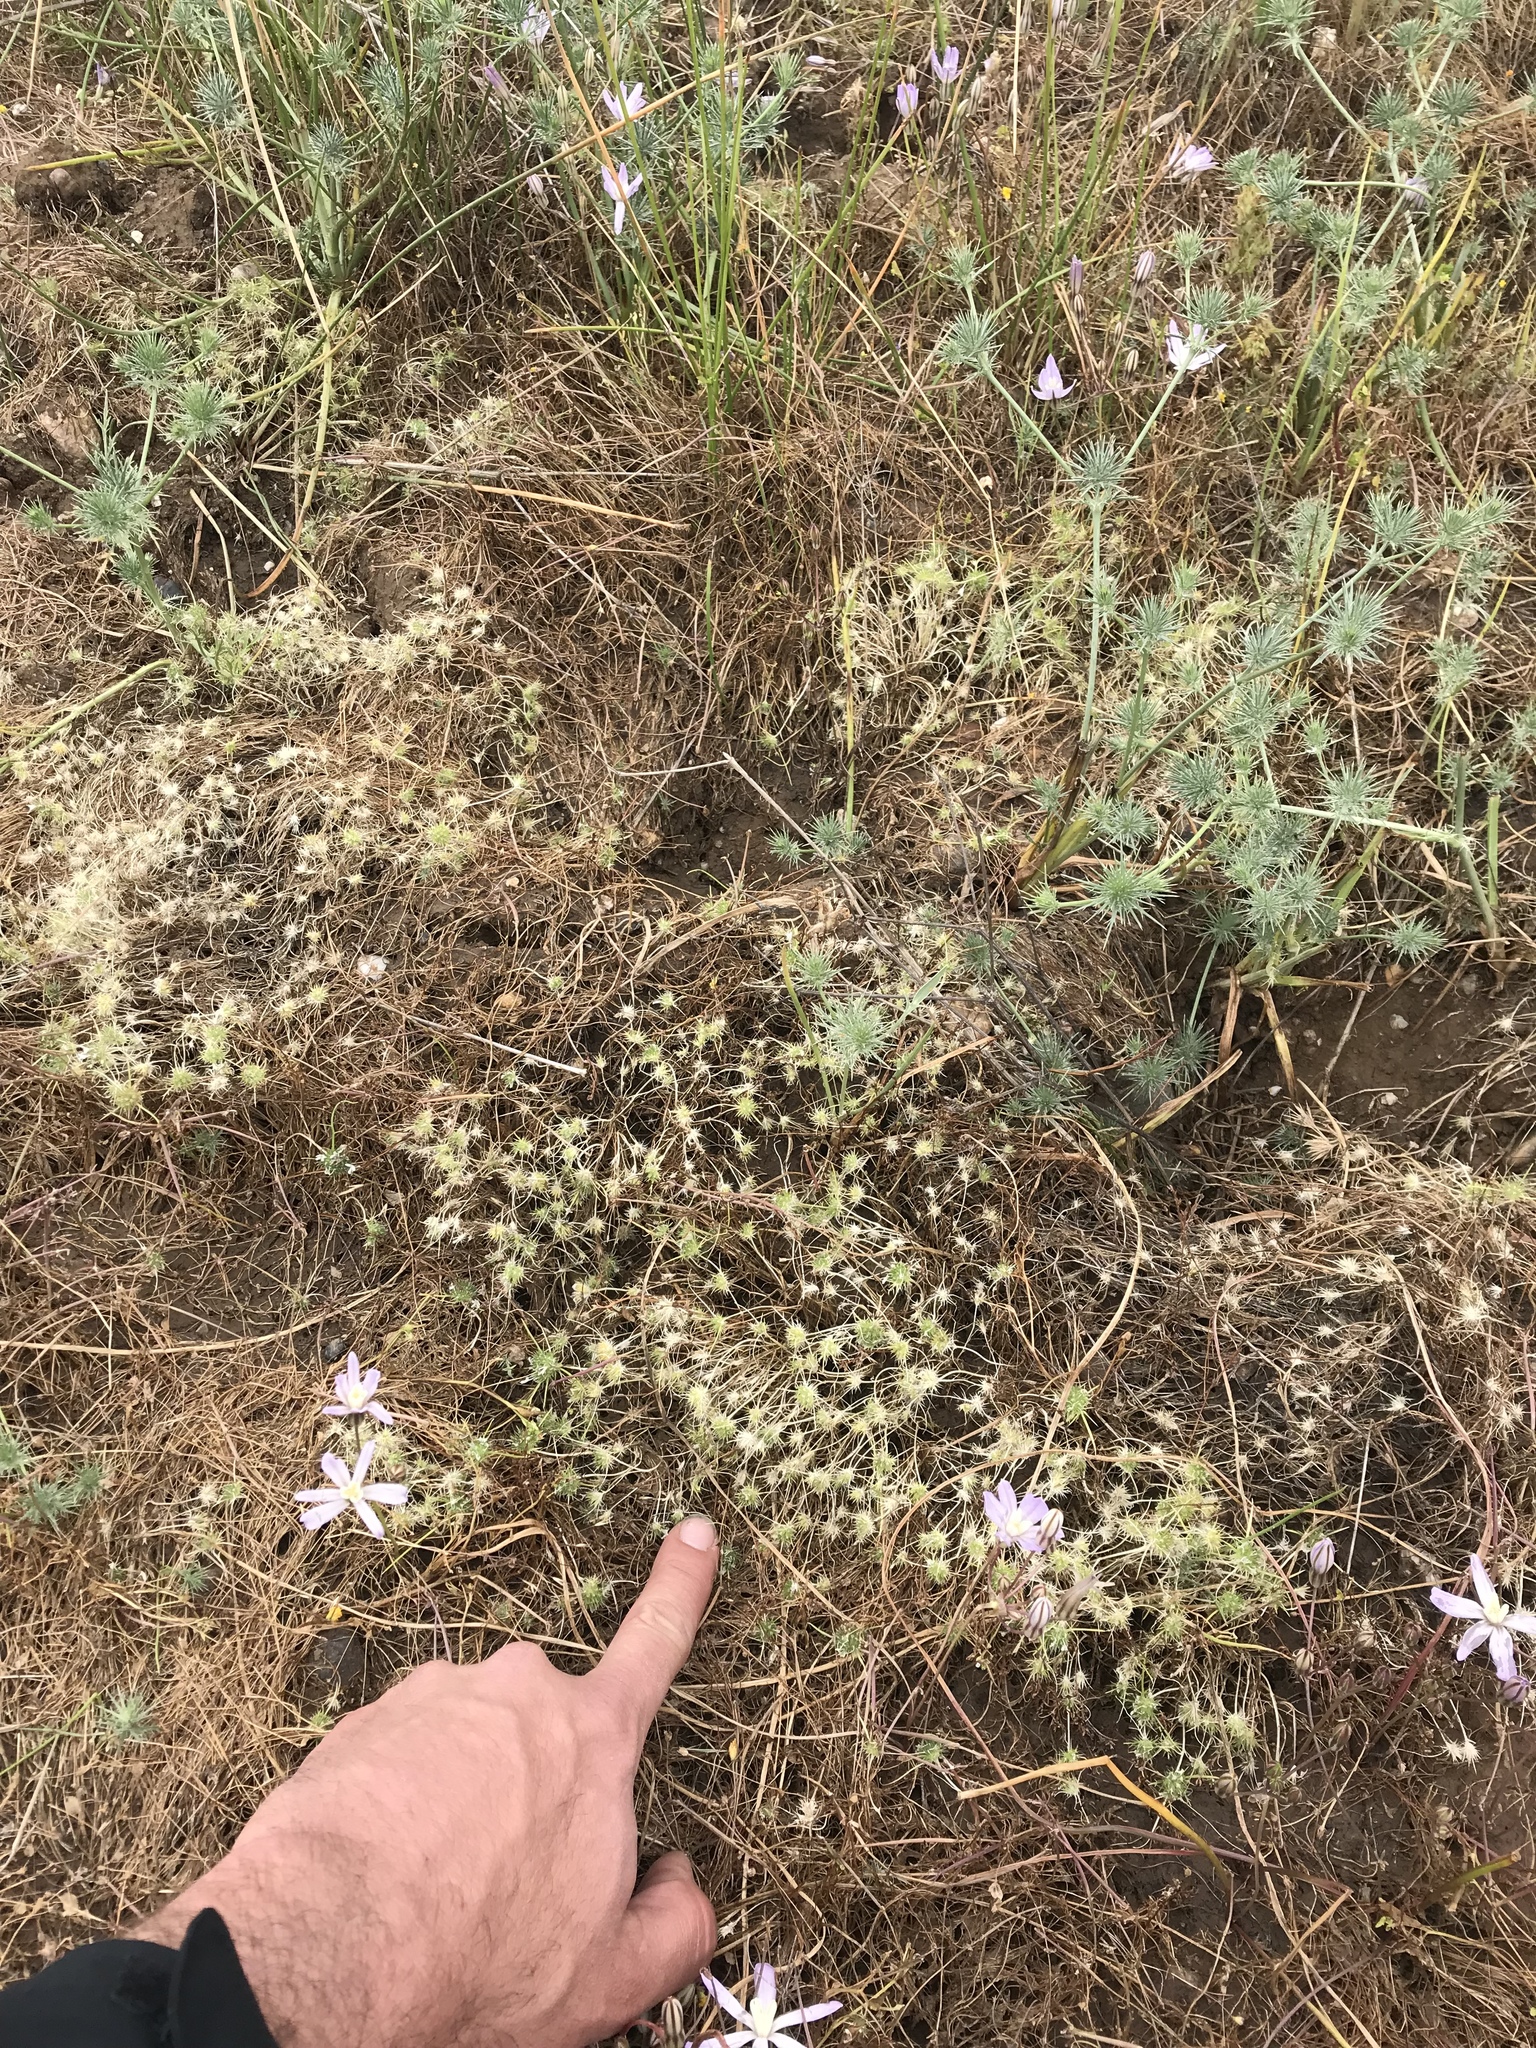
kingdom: Plantae
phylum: Tracheophyta
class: Magnoliopsida
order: Ericales
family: Polemoniaceae
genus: Navarretia
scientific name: Navarretia myersii
